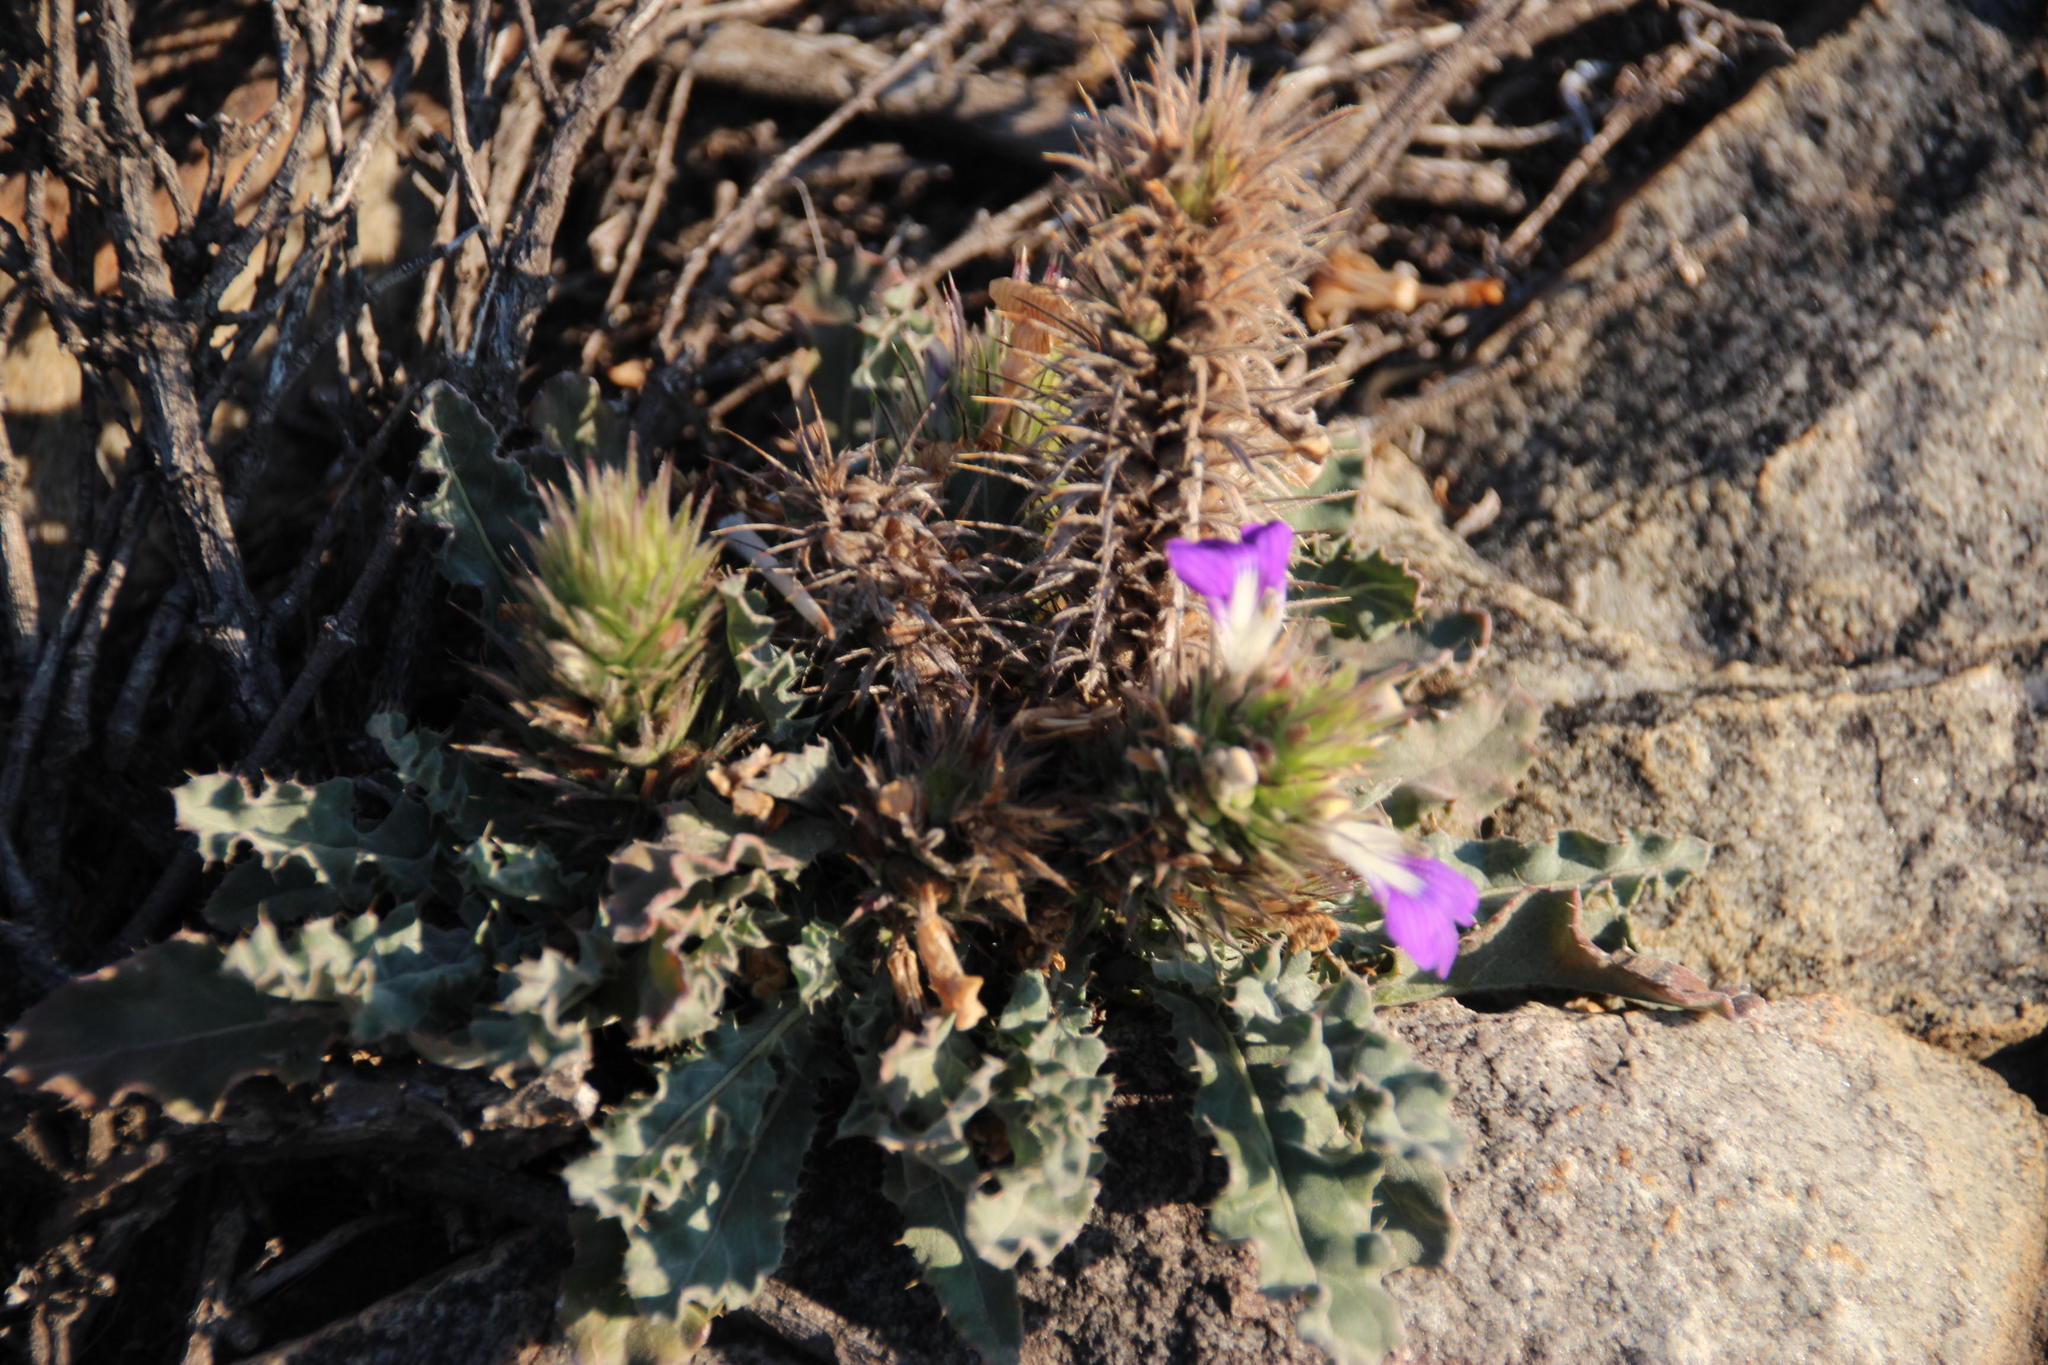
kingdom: Plantae
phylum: Tracheophyta
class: Magnoliopsida
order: Lamiales
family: Acanthaceae
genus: Acanthopsis
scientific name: Acanthopsis dispermoides
